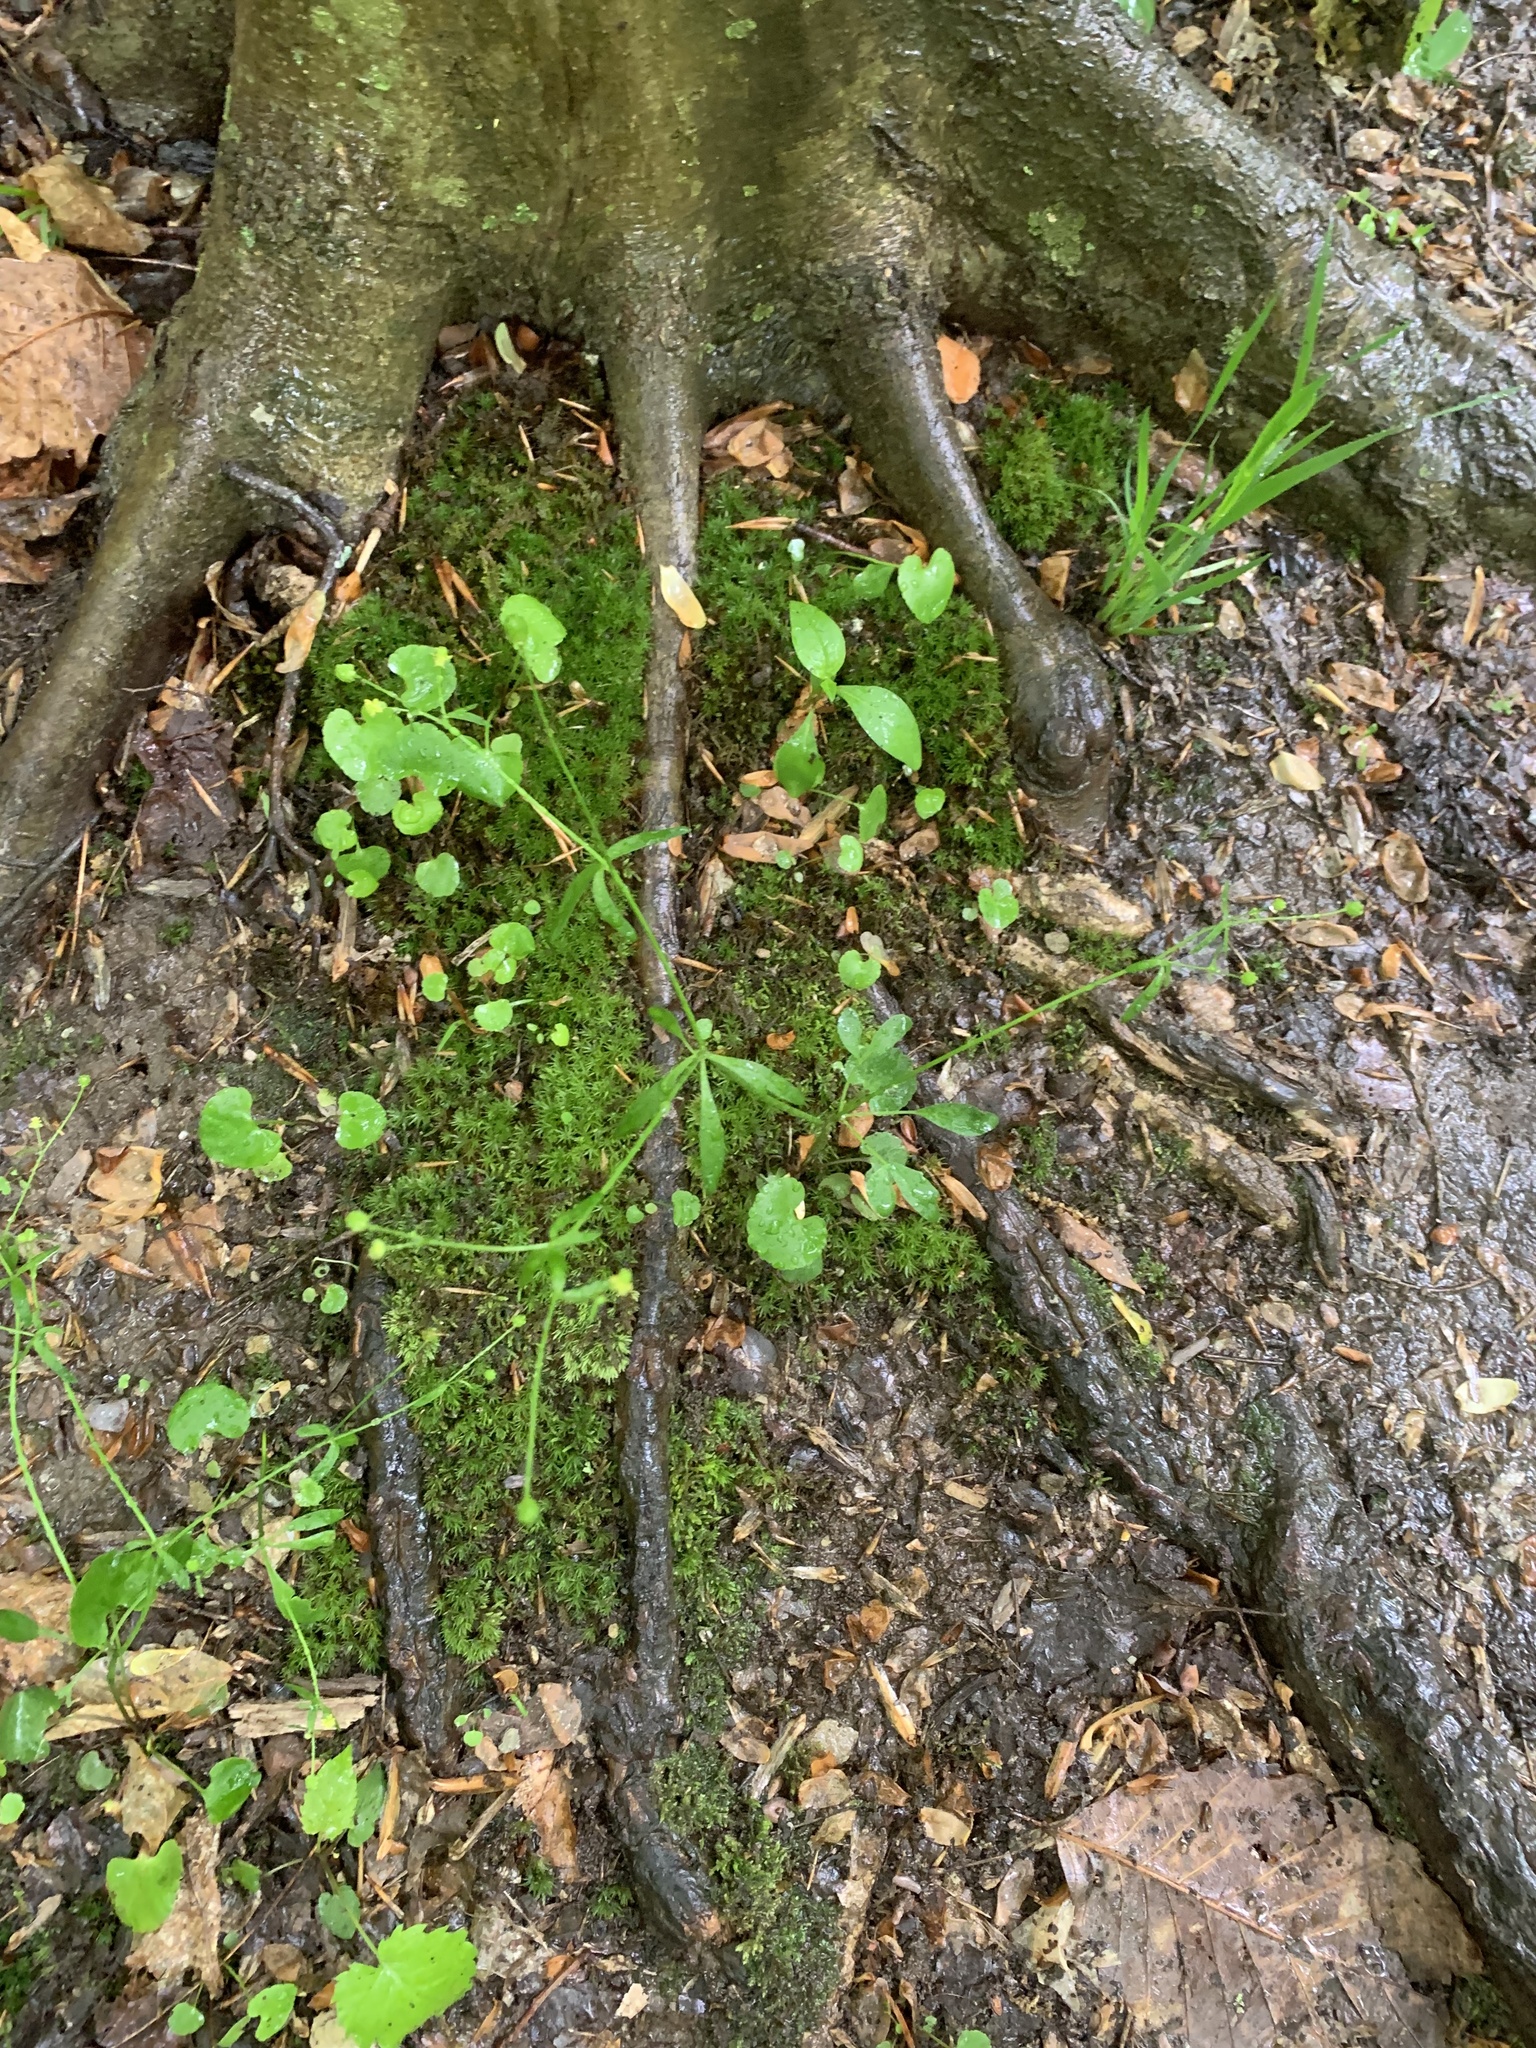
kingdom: Plantae
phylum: Tracheophyta
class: Magnoliopsida
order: Ranunculales
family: Ranunculaceae
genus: Ranunculus
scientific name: Ranunculus abortivus
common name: Early wood buttercup
